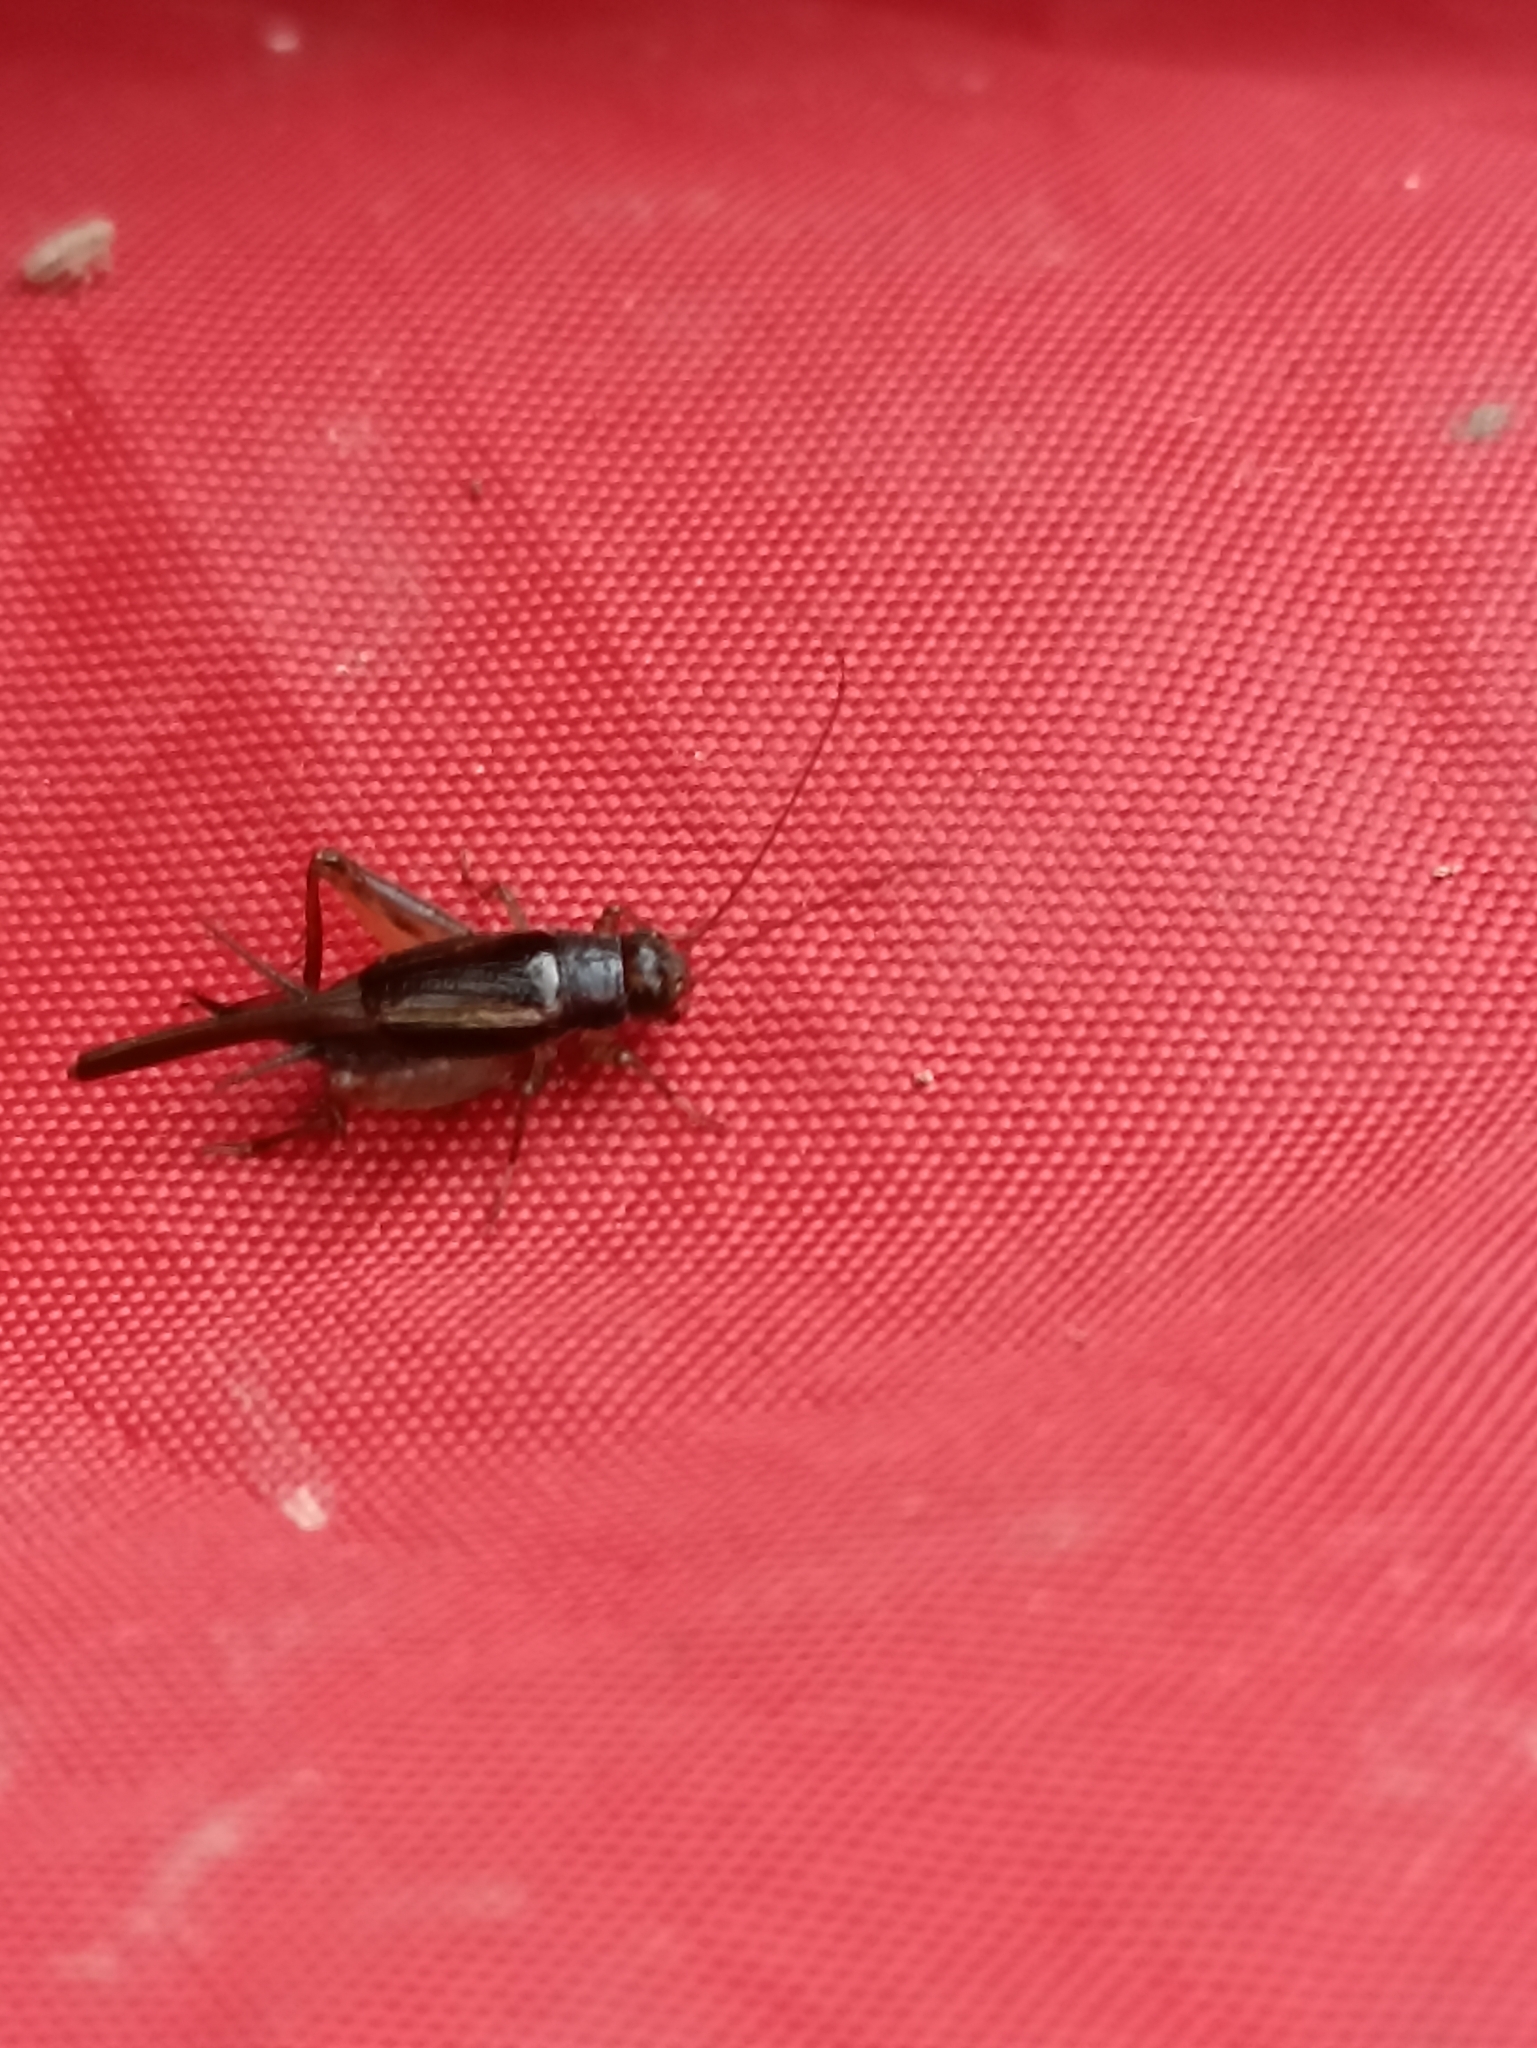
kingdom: Animalia
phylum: Arthropoda
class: Insecta
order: Orthoptera
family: Trigonidiidae
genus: Pteronemobius
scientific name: Pteronemobius truncatus
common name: Confusing pygmy cricket
